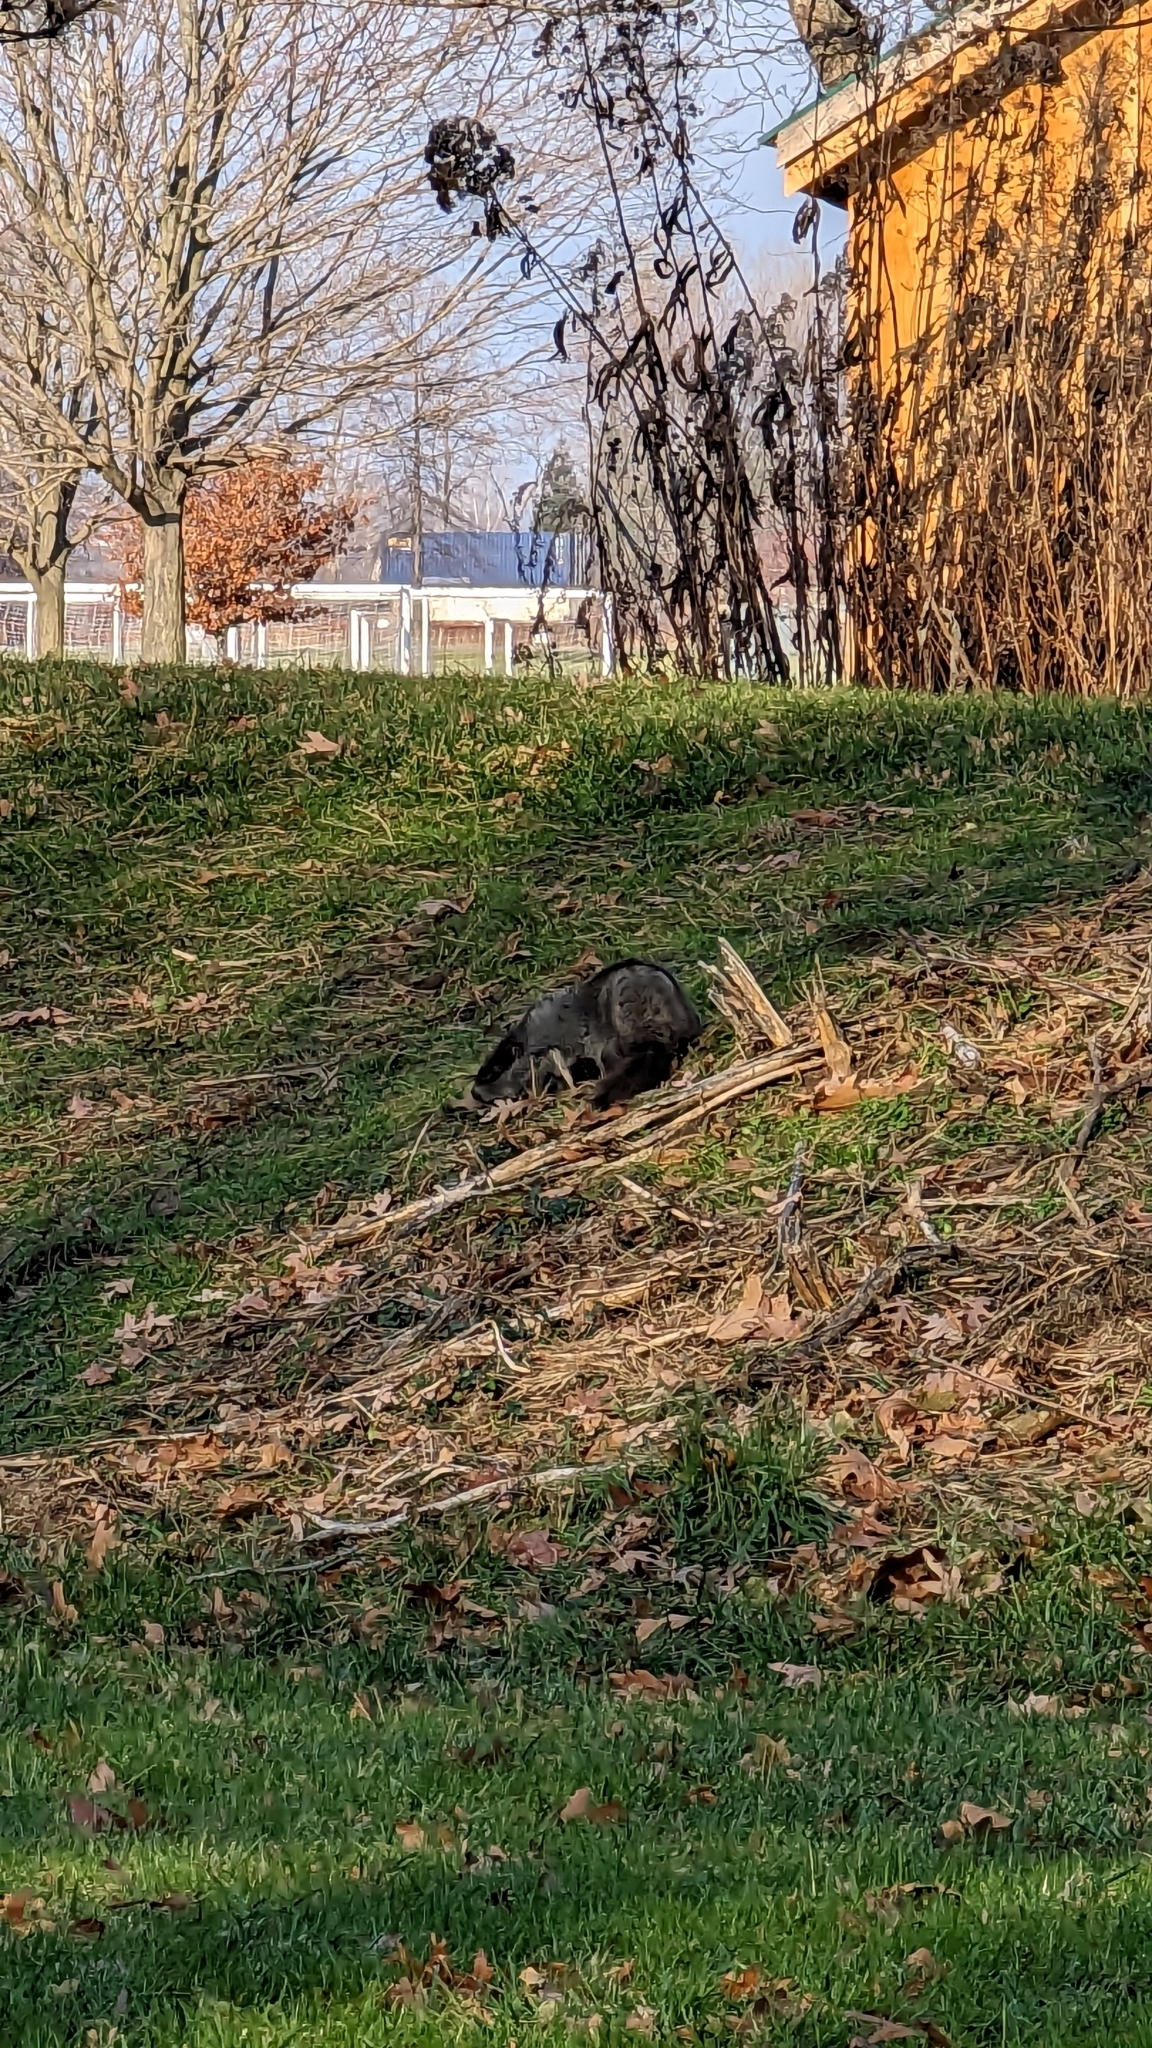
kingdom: Animalia
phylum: Chordata
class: Mammalia
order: Rodentia
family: Sciuridae
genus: Marmota
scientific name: Marmota monax
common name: Groundhog
